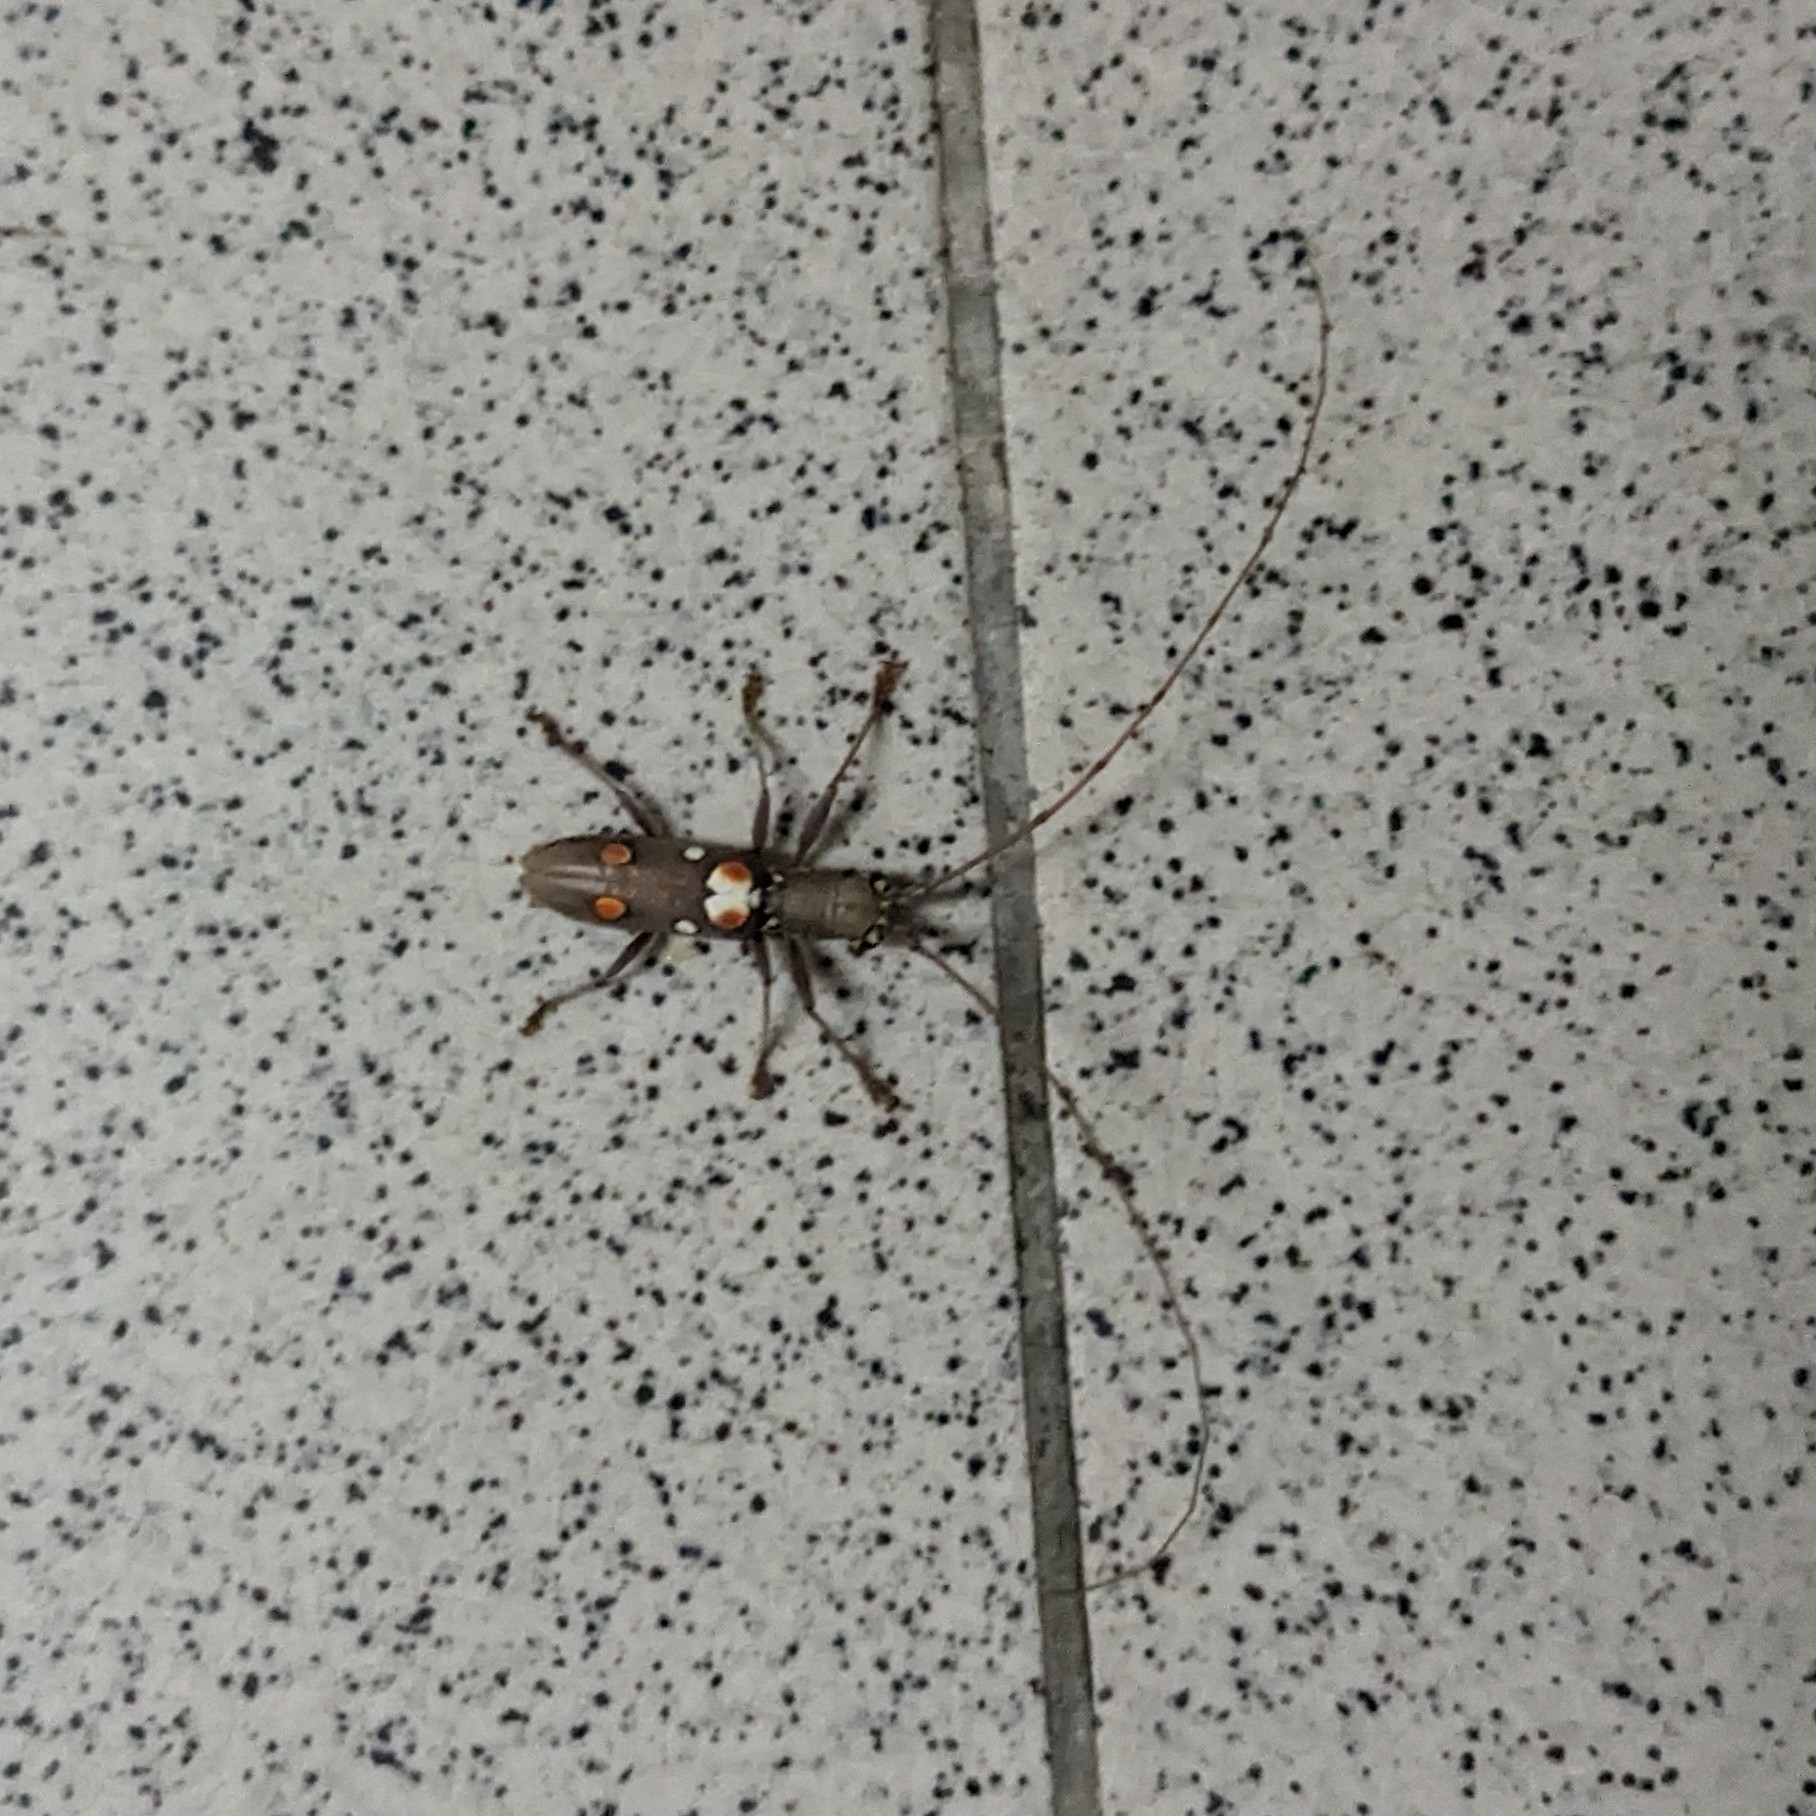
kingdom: Animalia
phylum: Arthropoda
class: Insecta
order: Coleoptera
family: Cerambycidae
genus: Olenecamptus
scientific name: Olenecamptus bilobus
